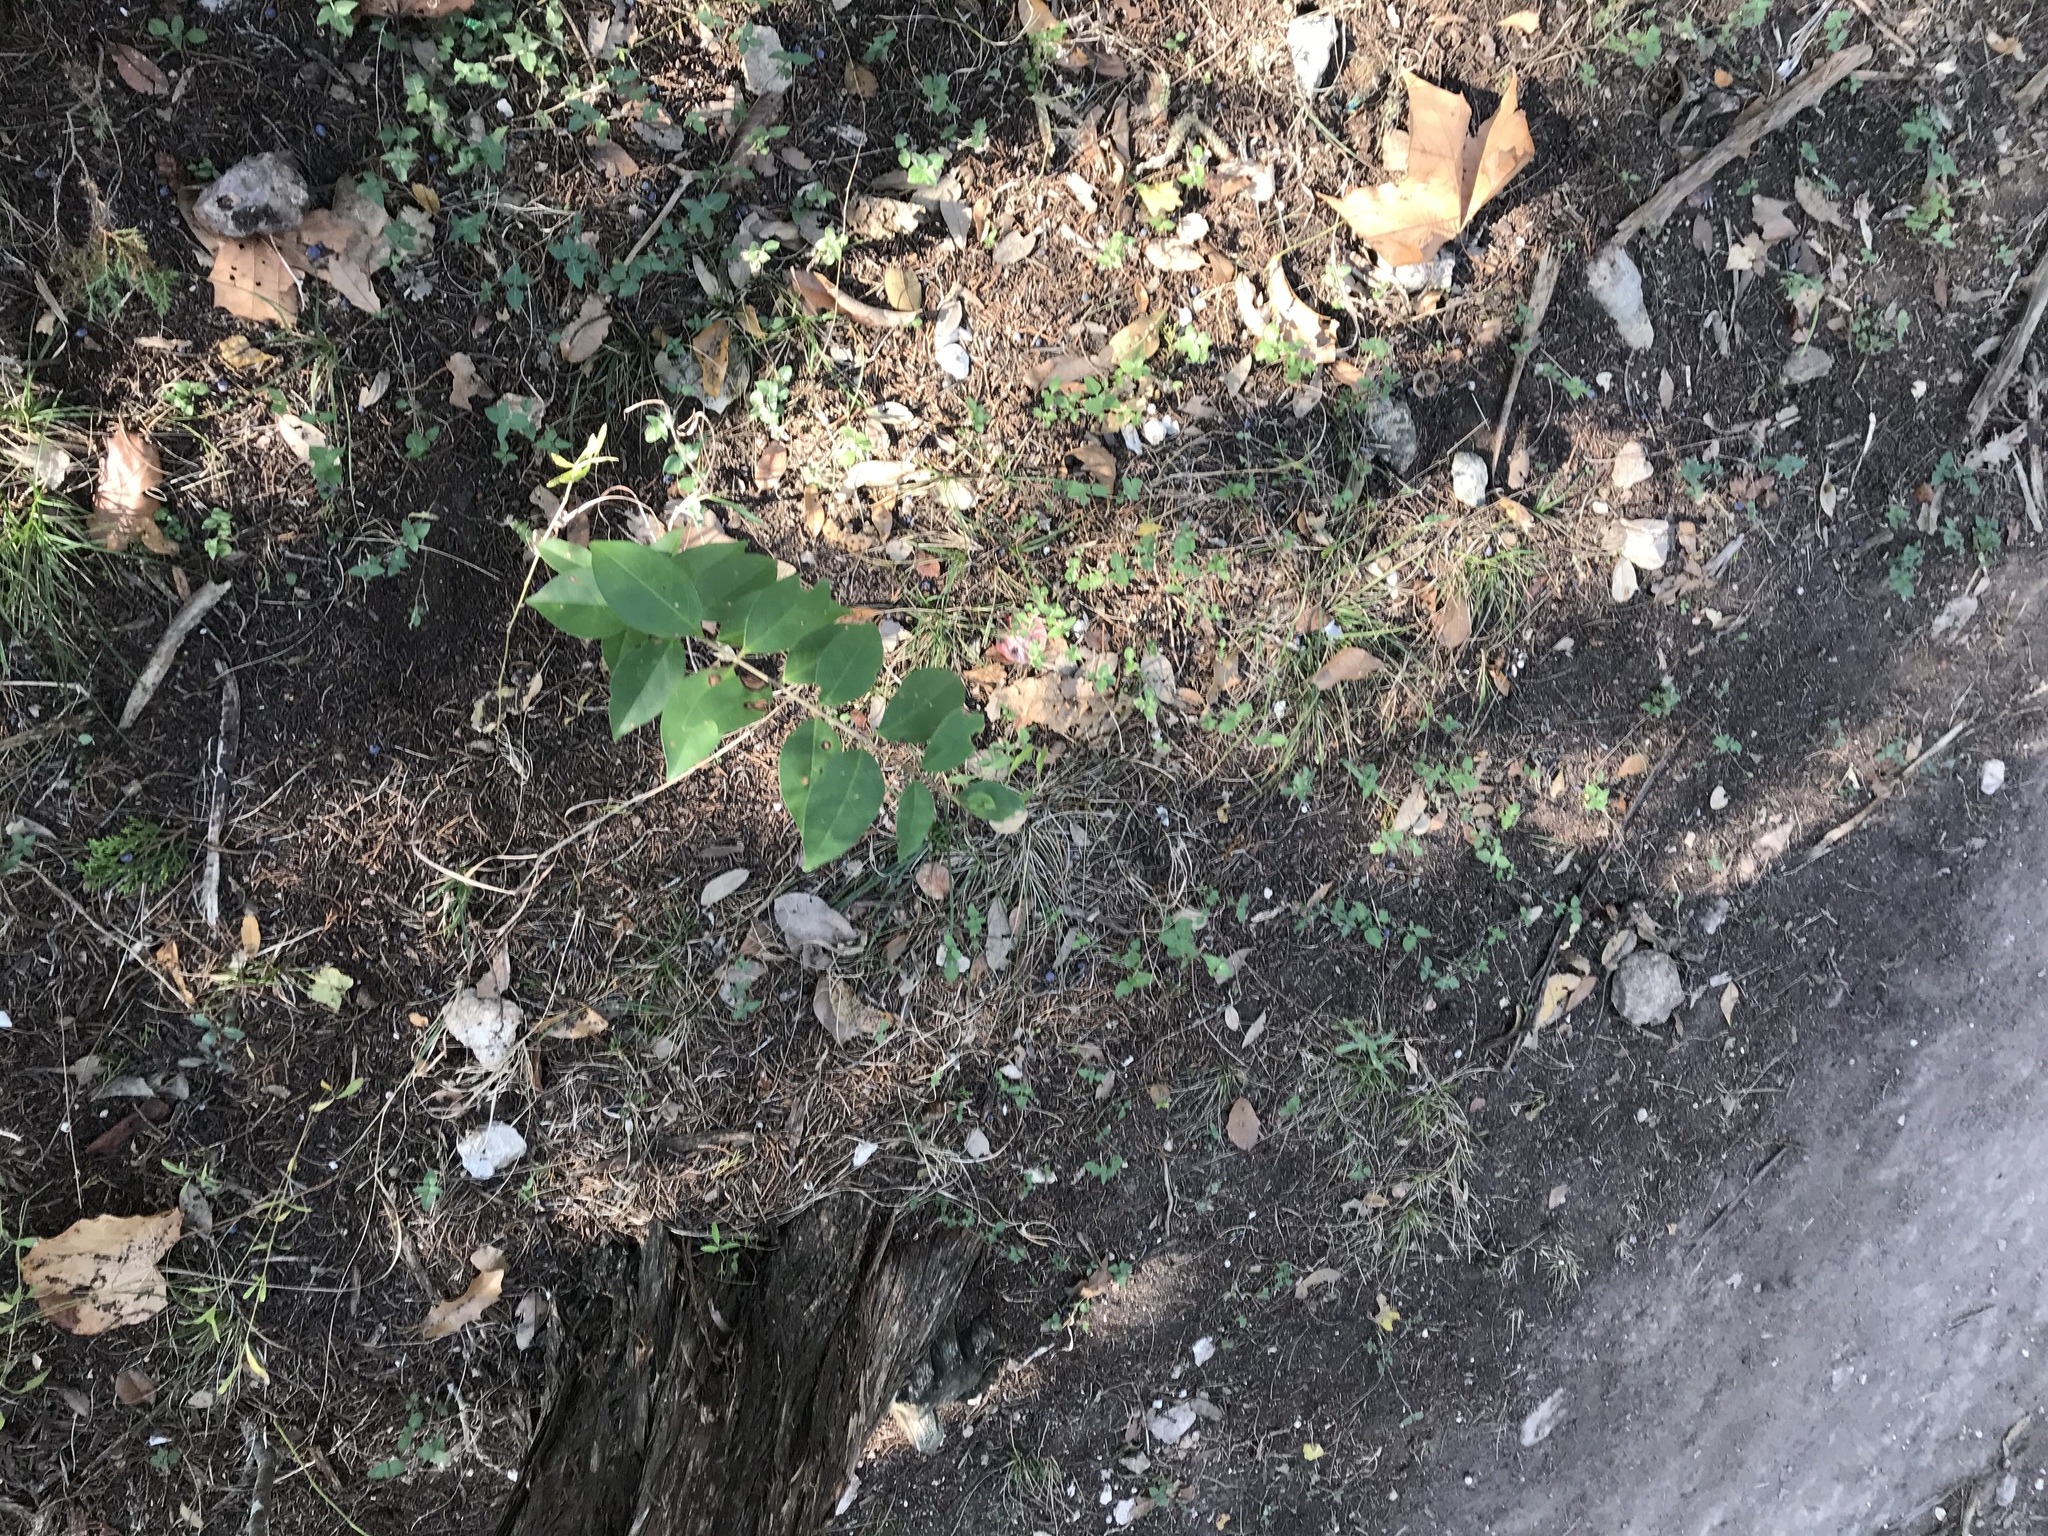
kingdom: Plantae
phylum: Tracheophyta
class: Magnoliopsida
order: Lamiales
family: Oleaceae
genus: Ligustrum
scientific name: Ligustrum lucidum
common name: Glossy privet
